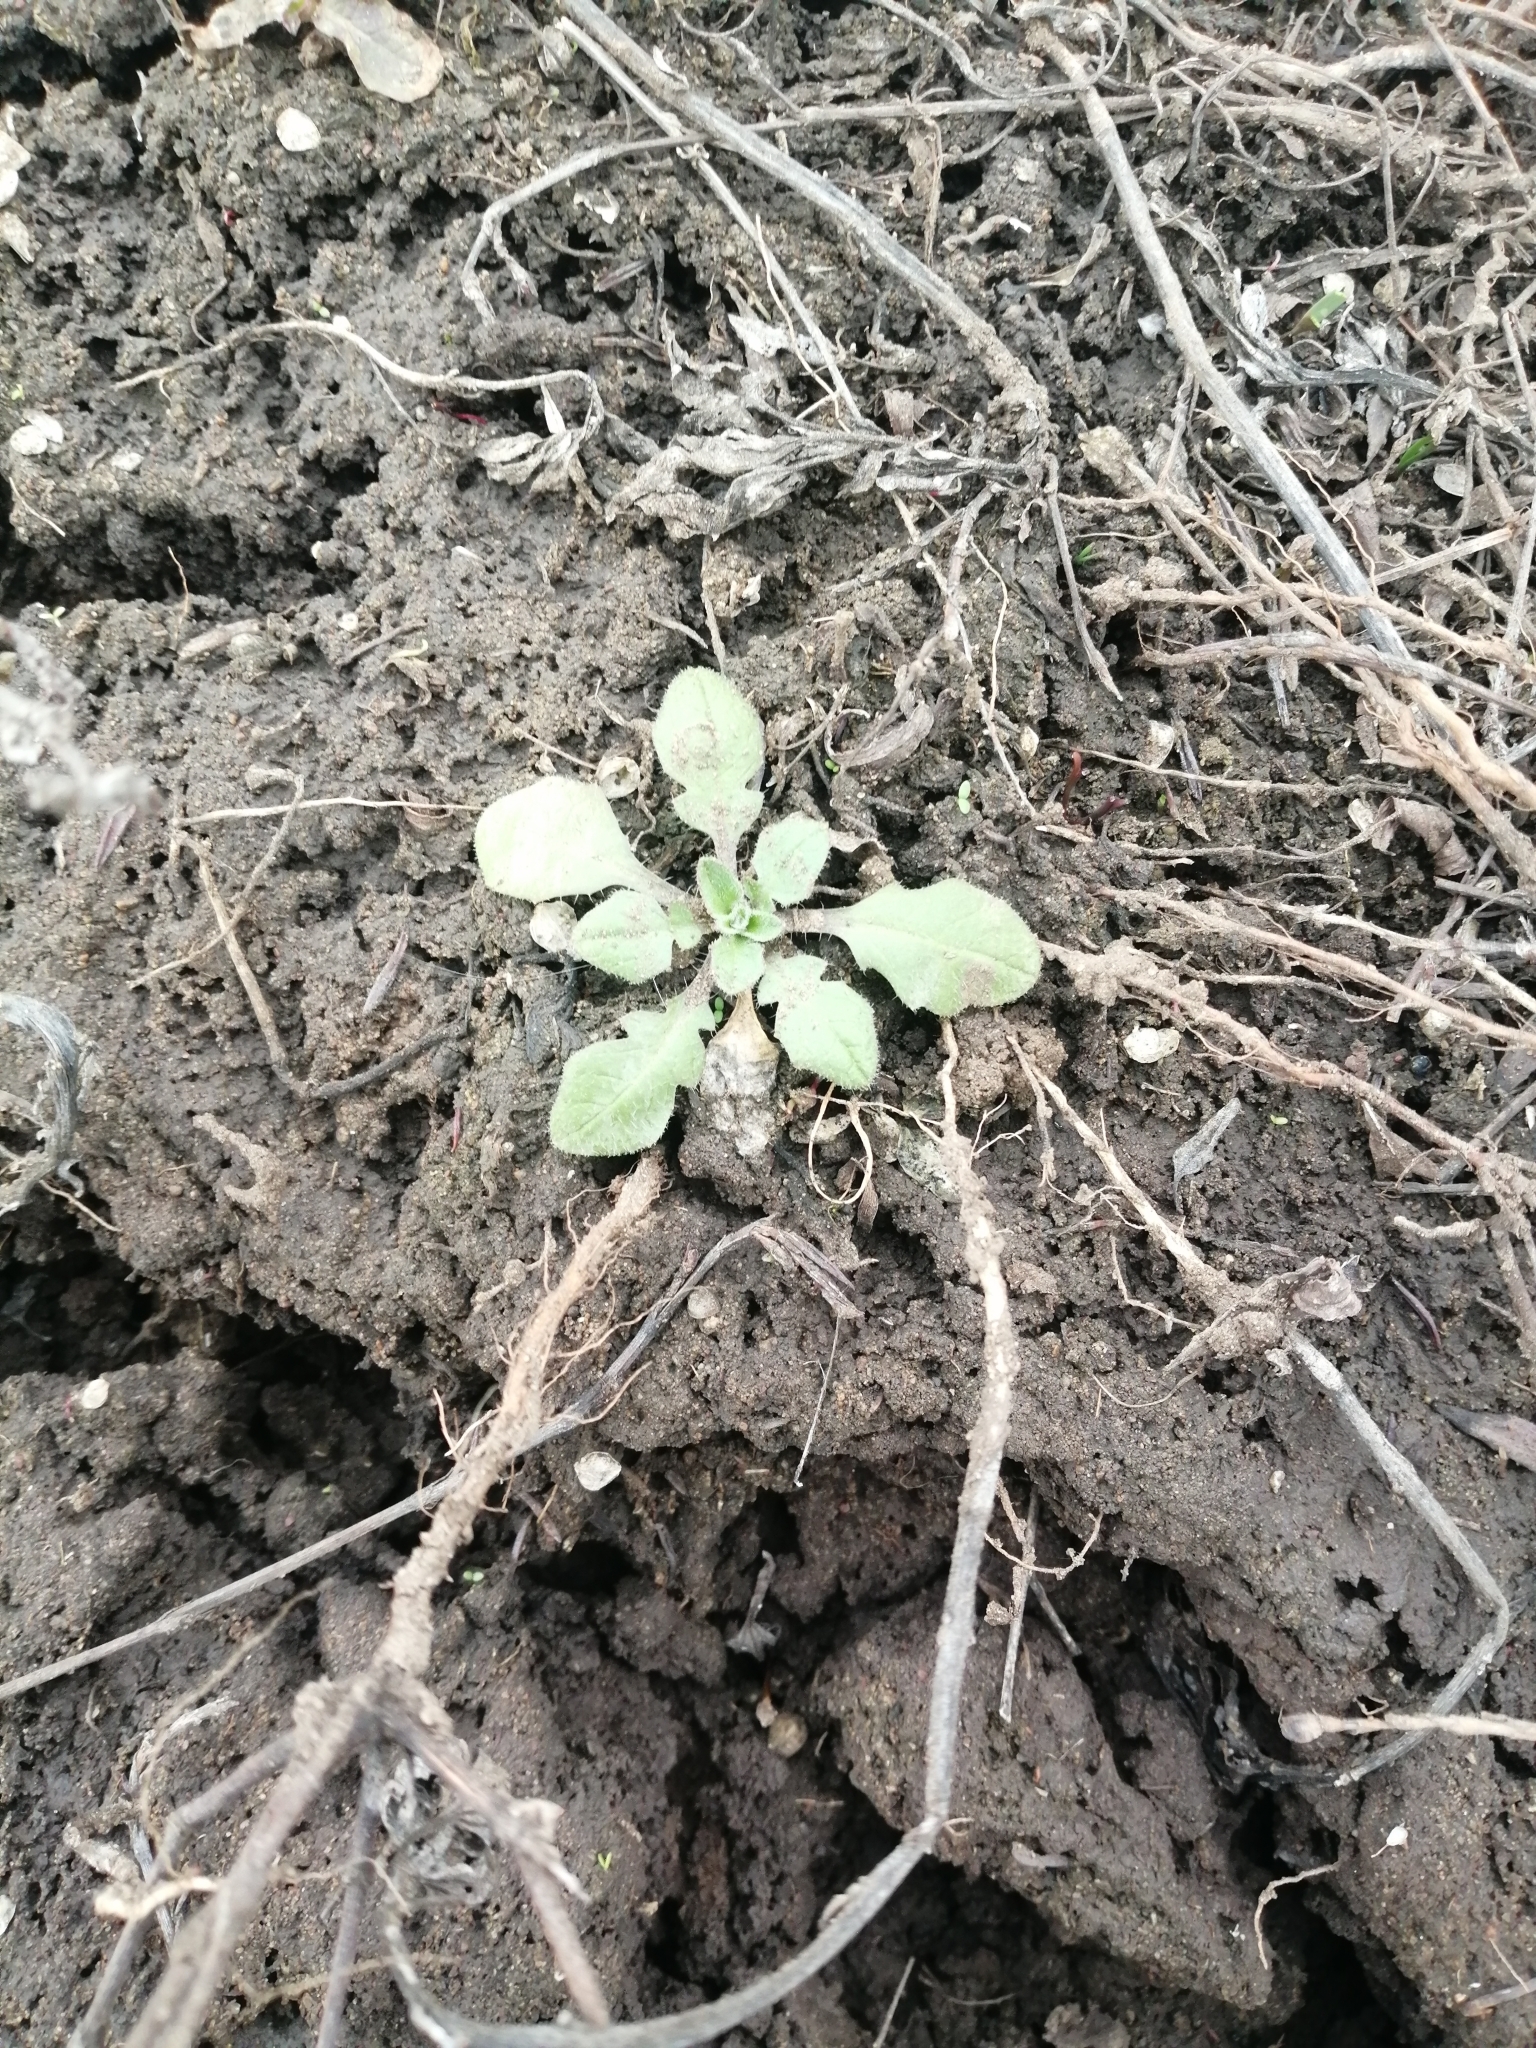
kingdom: Plantae
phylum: Tracheophyta
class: Magnoliopsida
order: Brassicales
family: Brassicaceae
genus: Capsella
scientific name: Capsella orientalis
